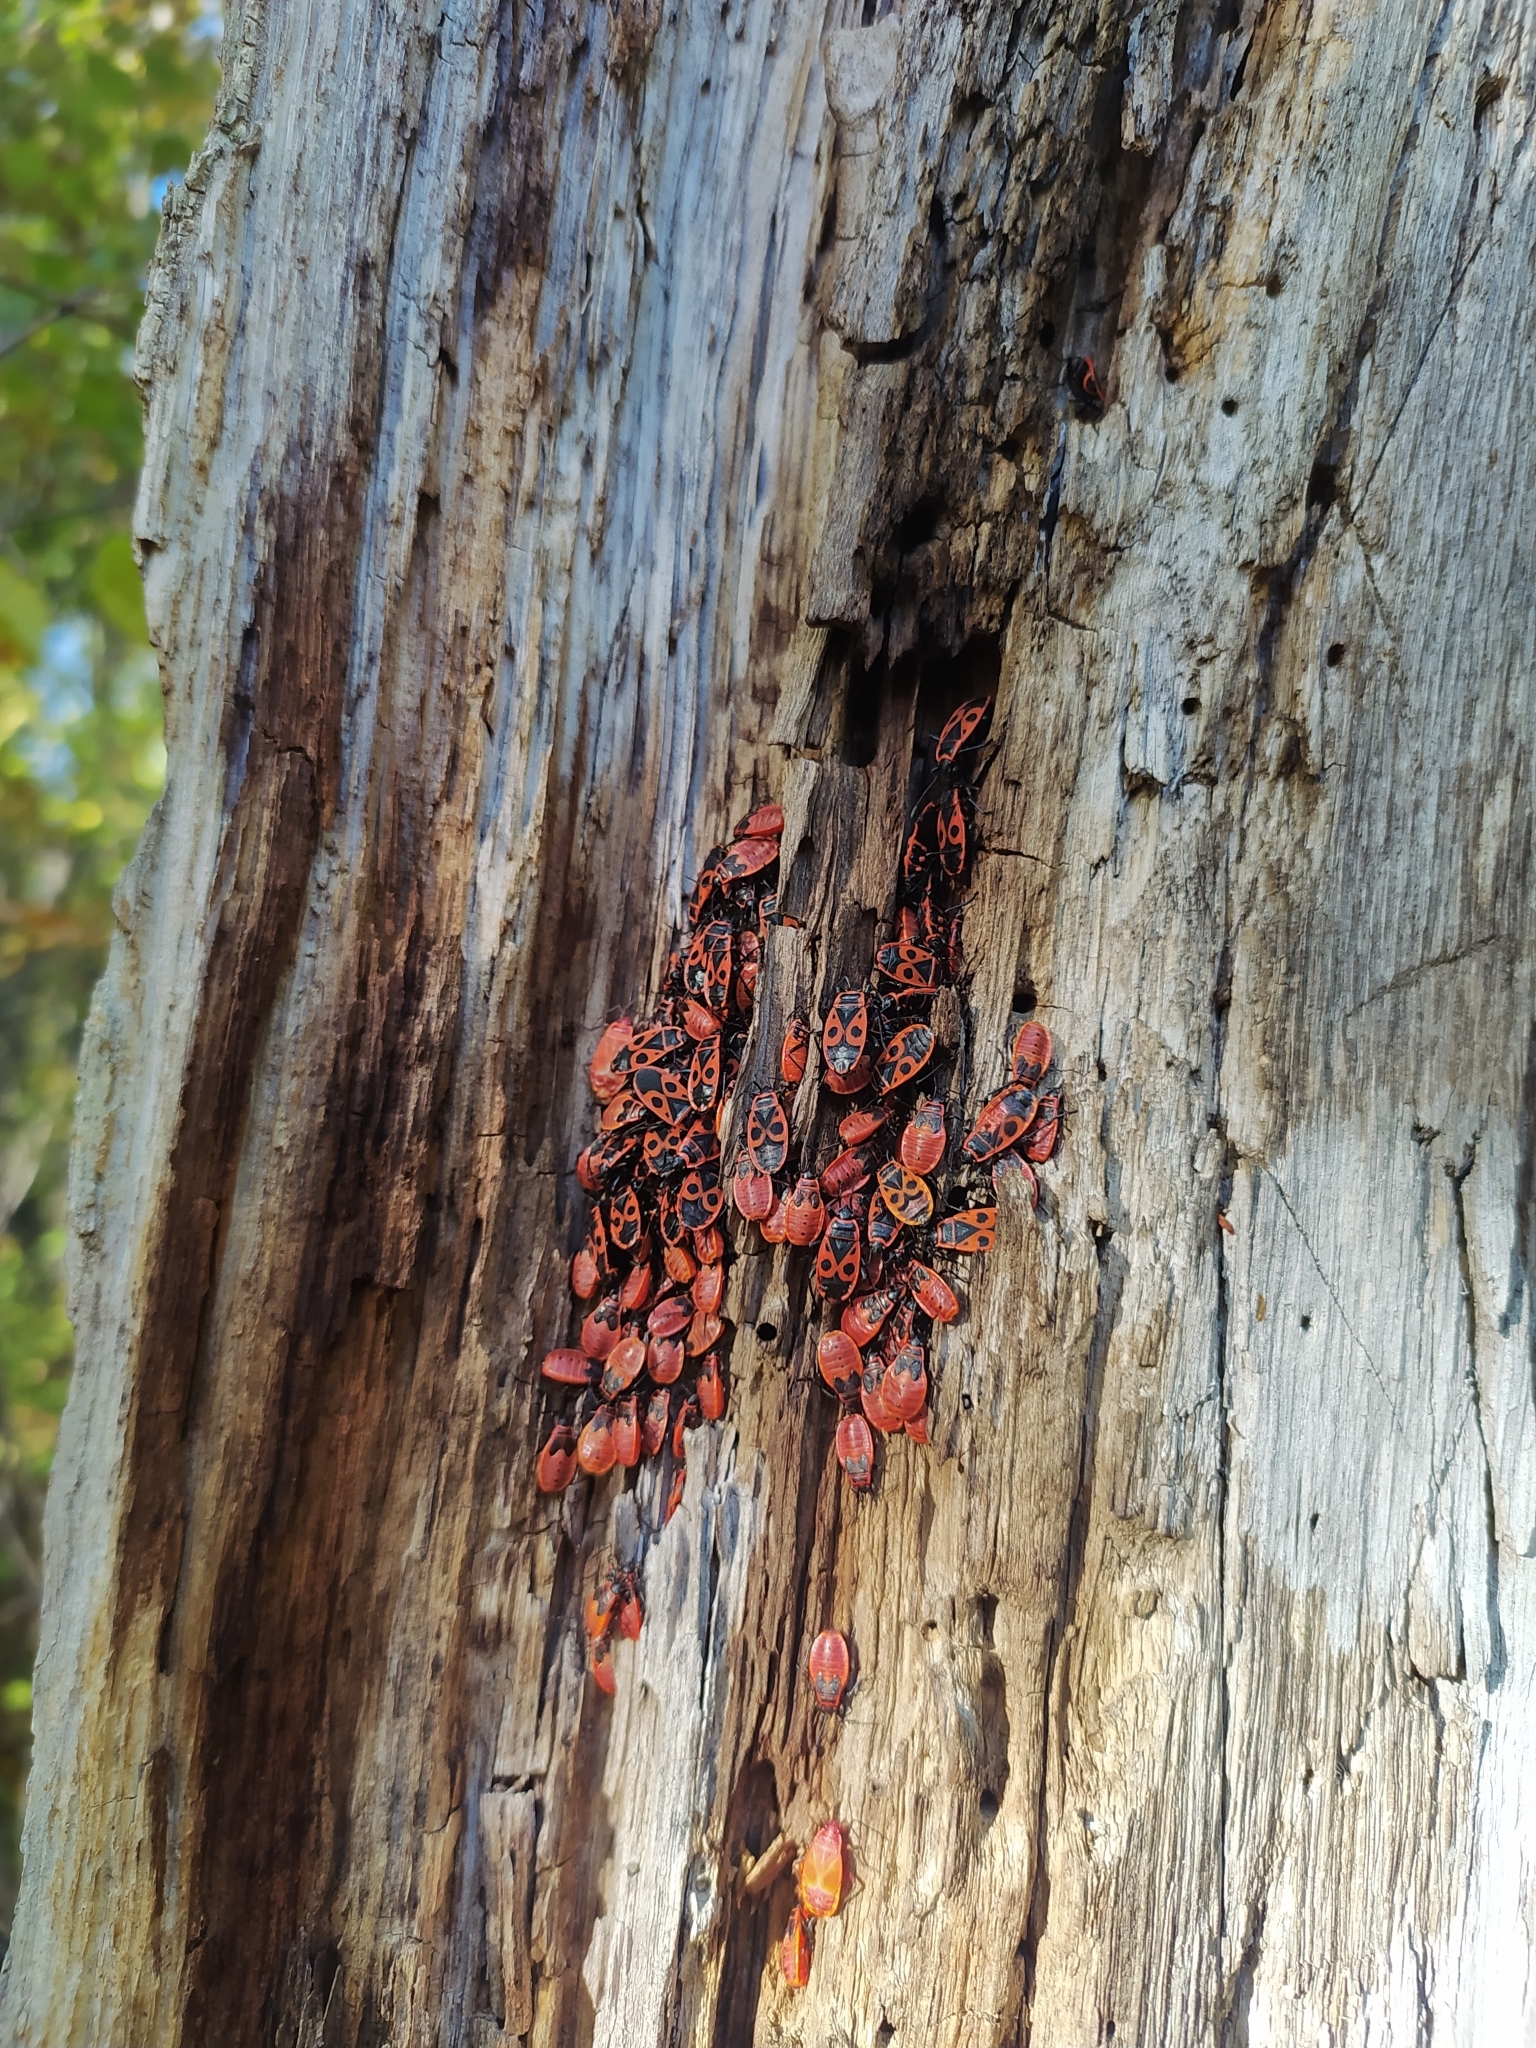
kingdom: Animalia
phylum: Arthropoda
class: Insecta
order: Hemiptera
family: Pyrrhocoridae
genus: Pyrrhocoris
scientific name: Pyrrhocoris apterus
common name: Firebug
